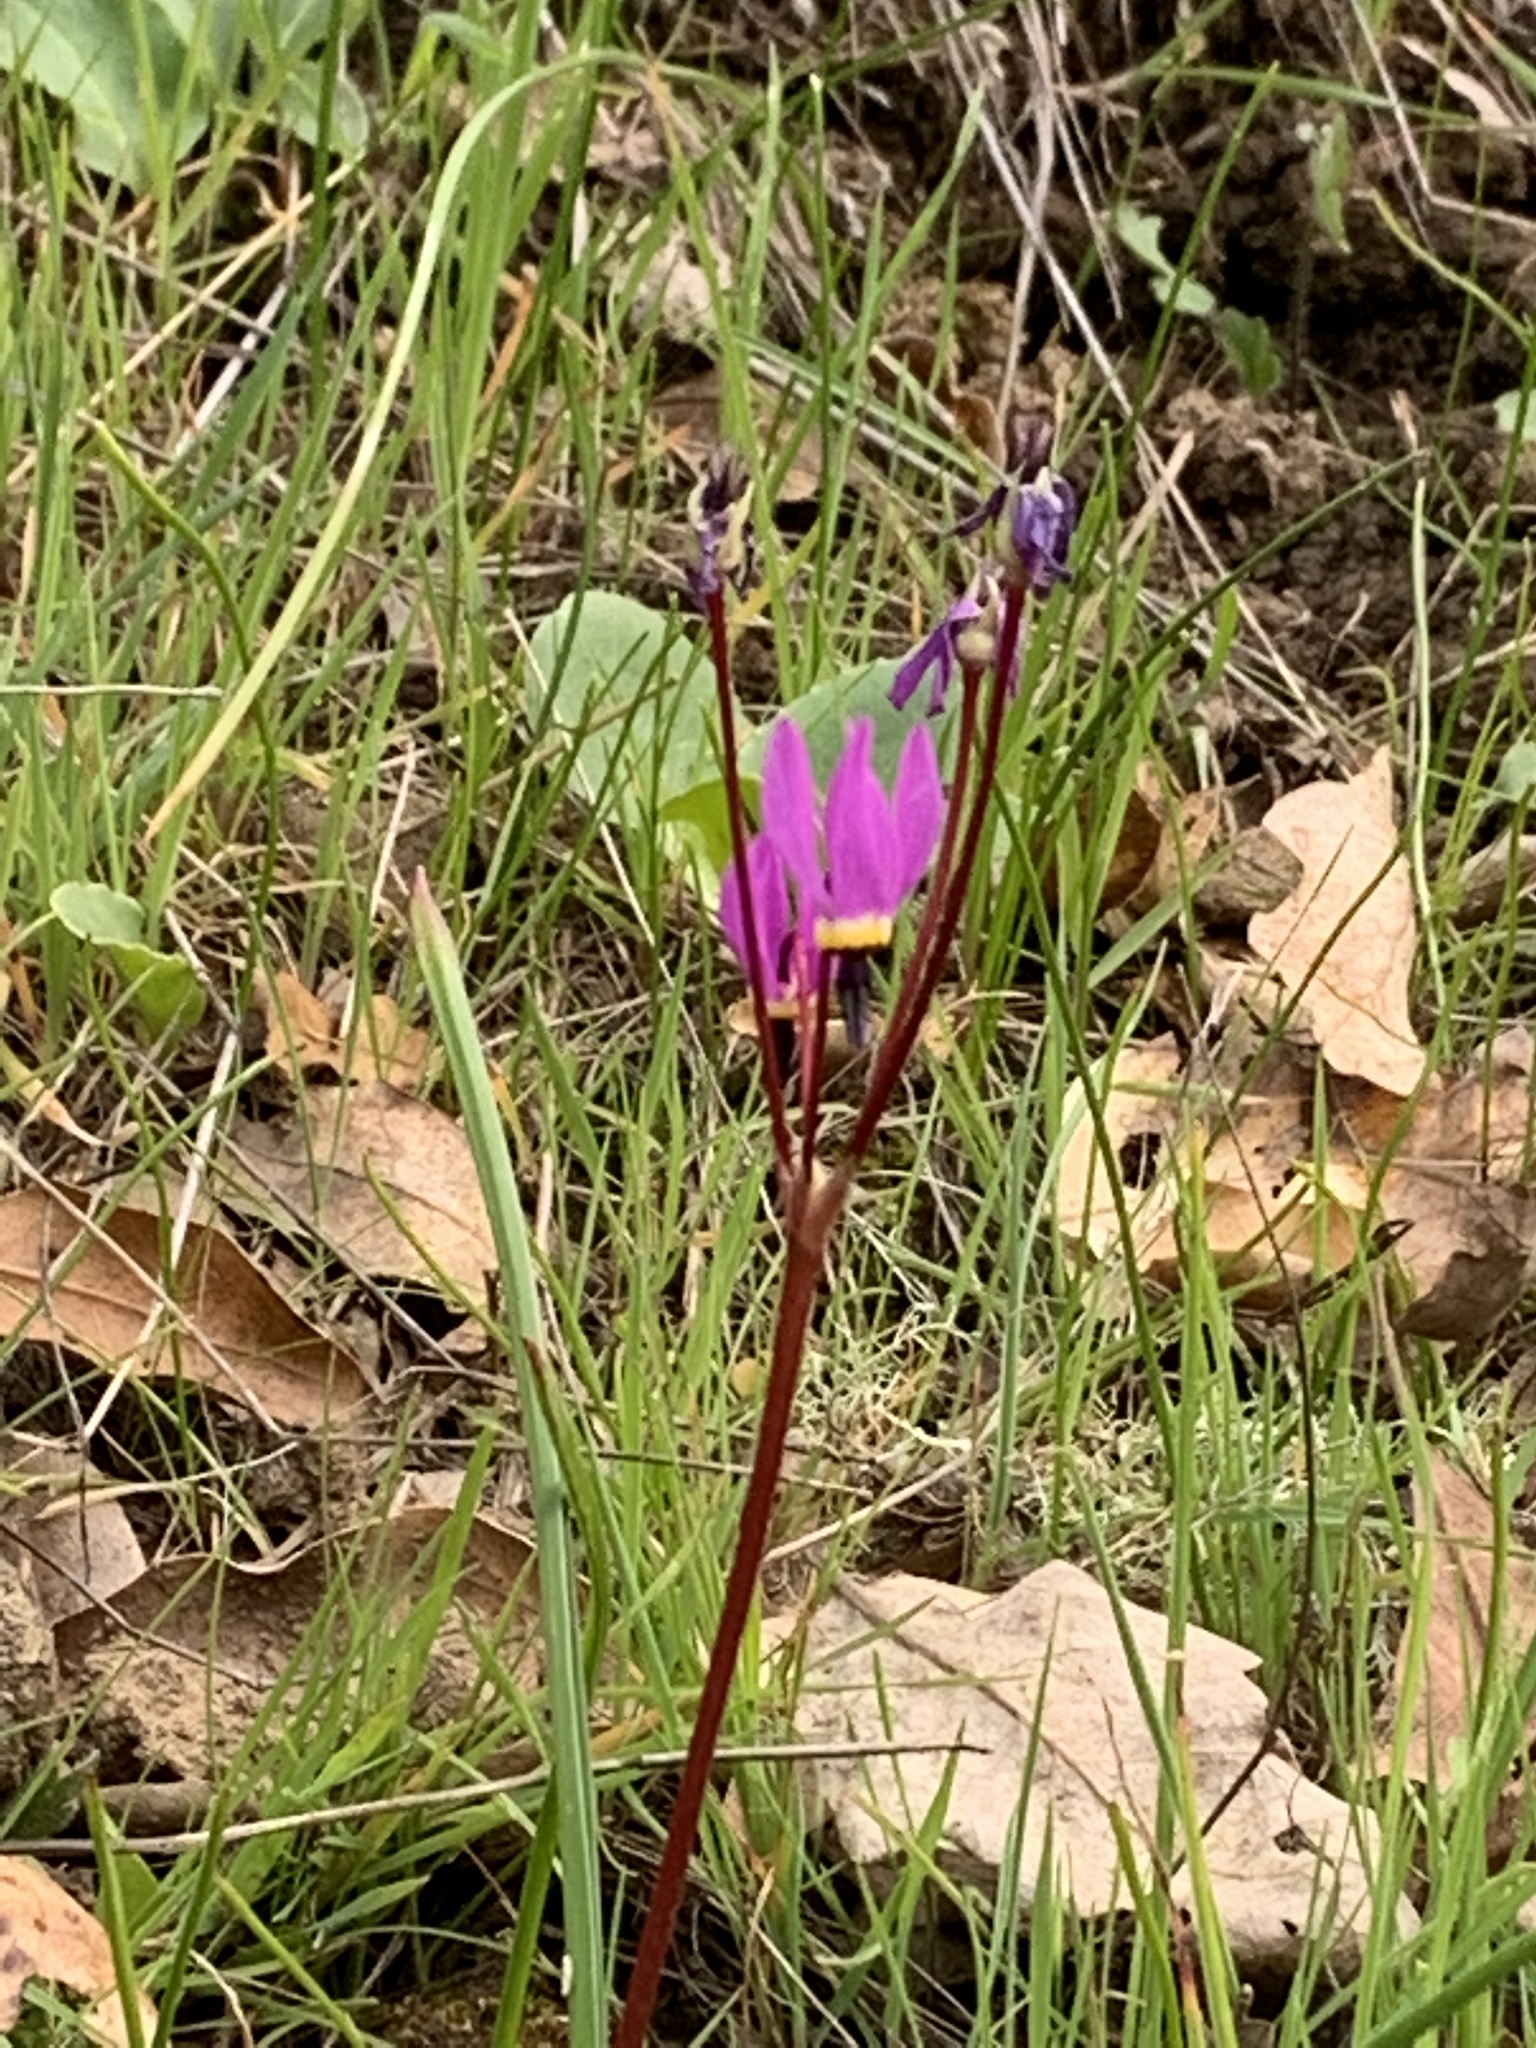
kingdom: Plantae
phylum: Tracheophyta
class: Magnoliopsida
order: Ericales
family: Primulaceae
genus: Dodecatheon
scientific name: Dodecatheon hendersonii
